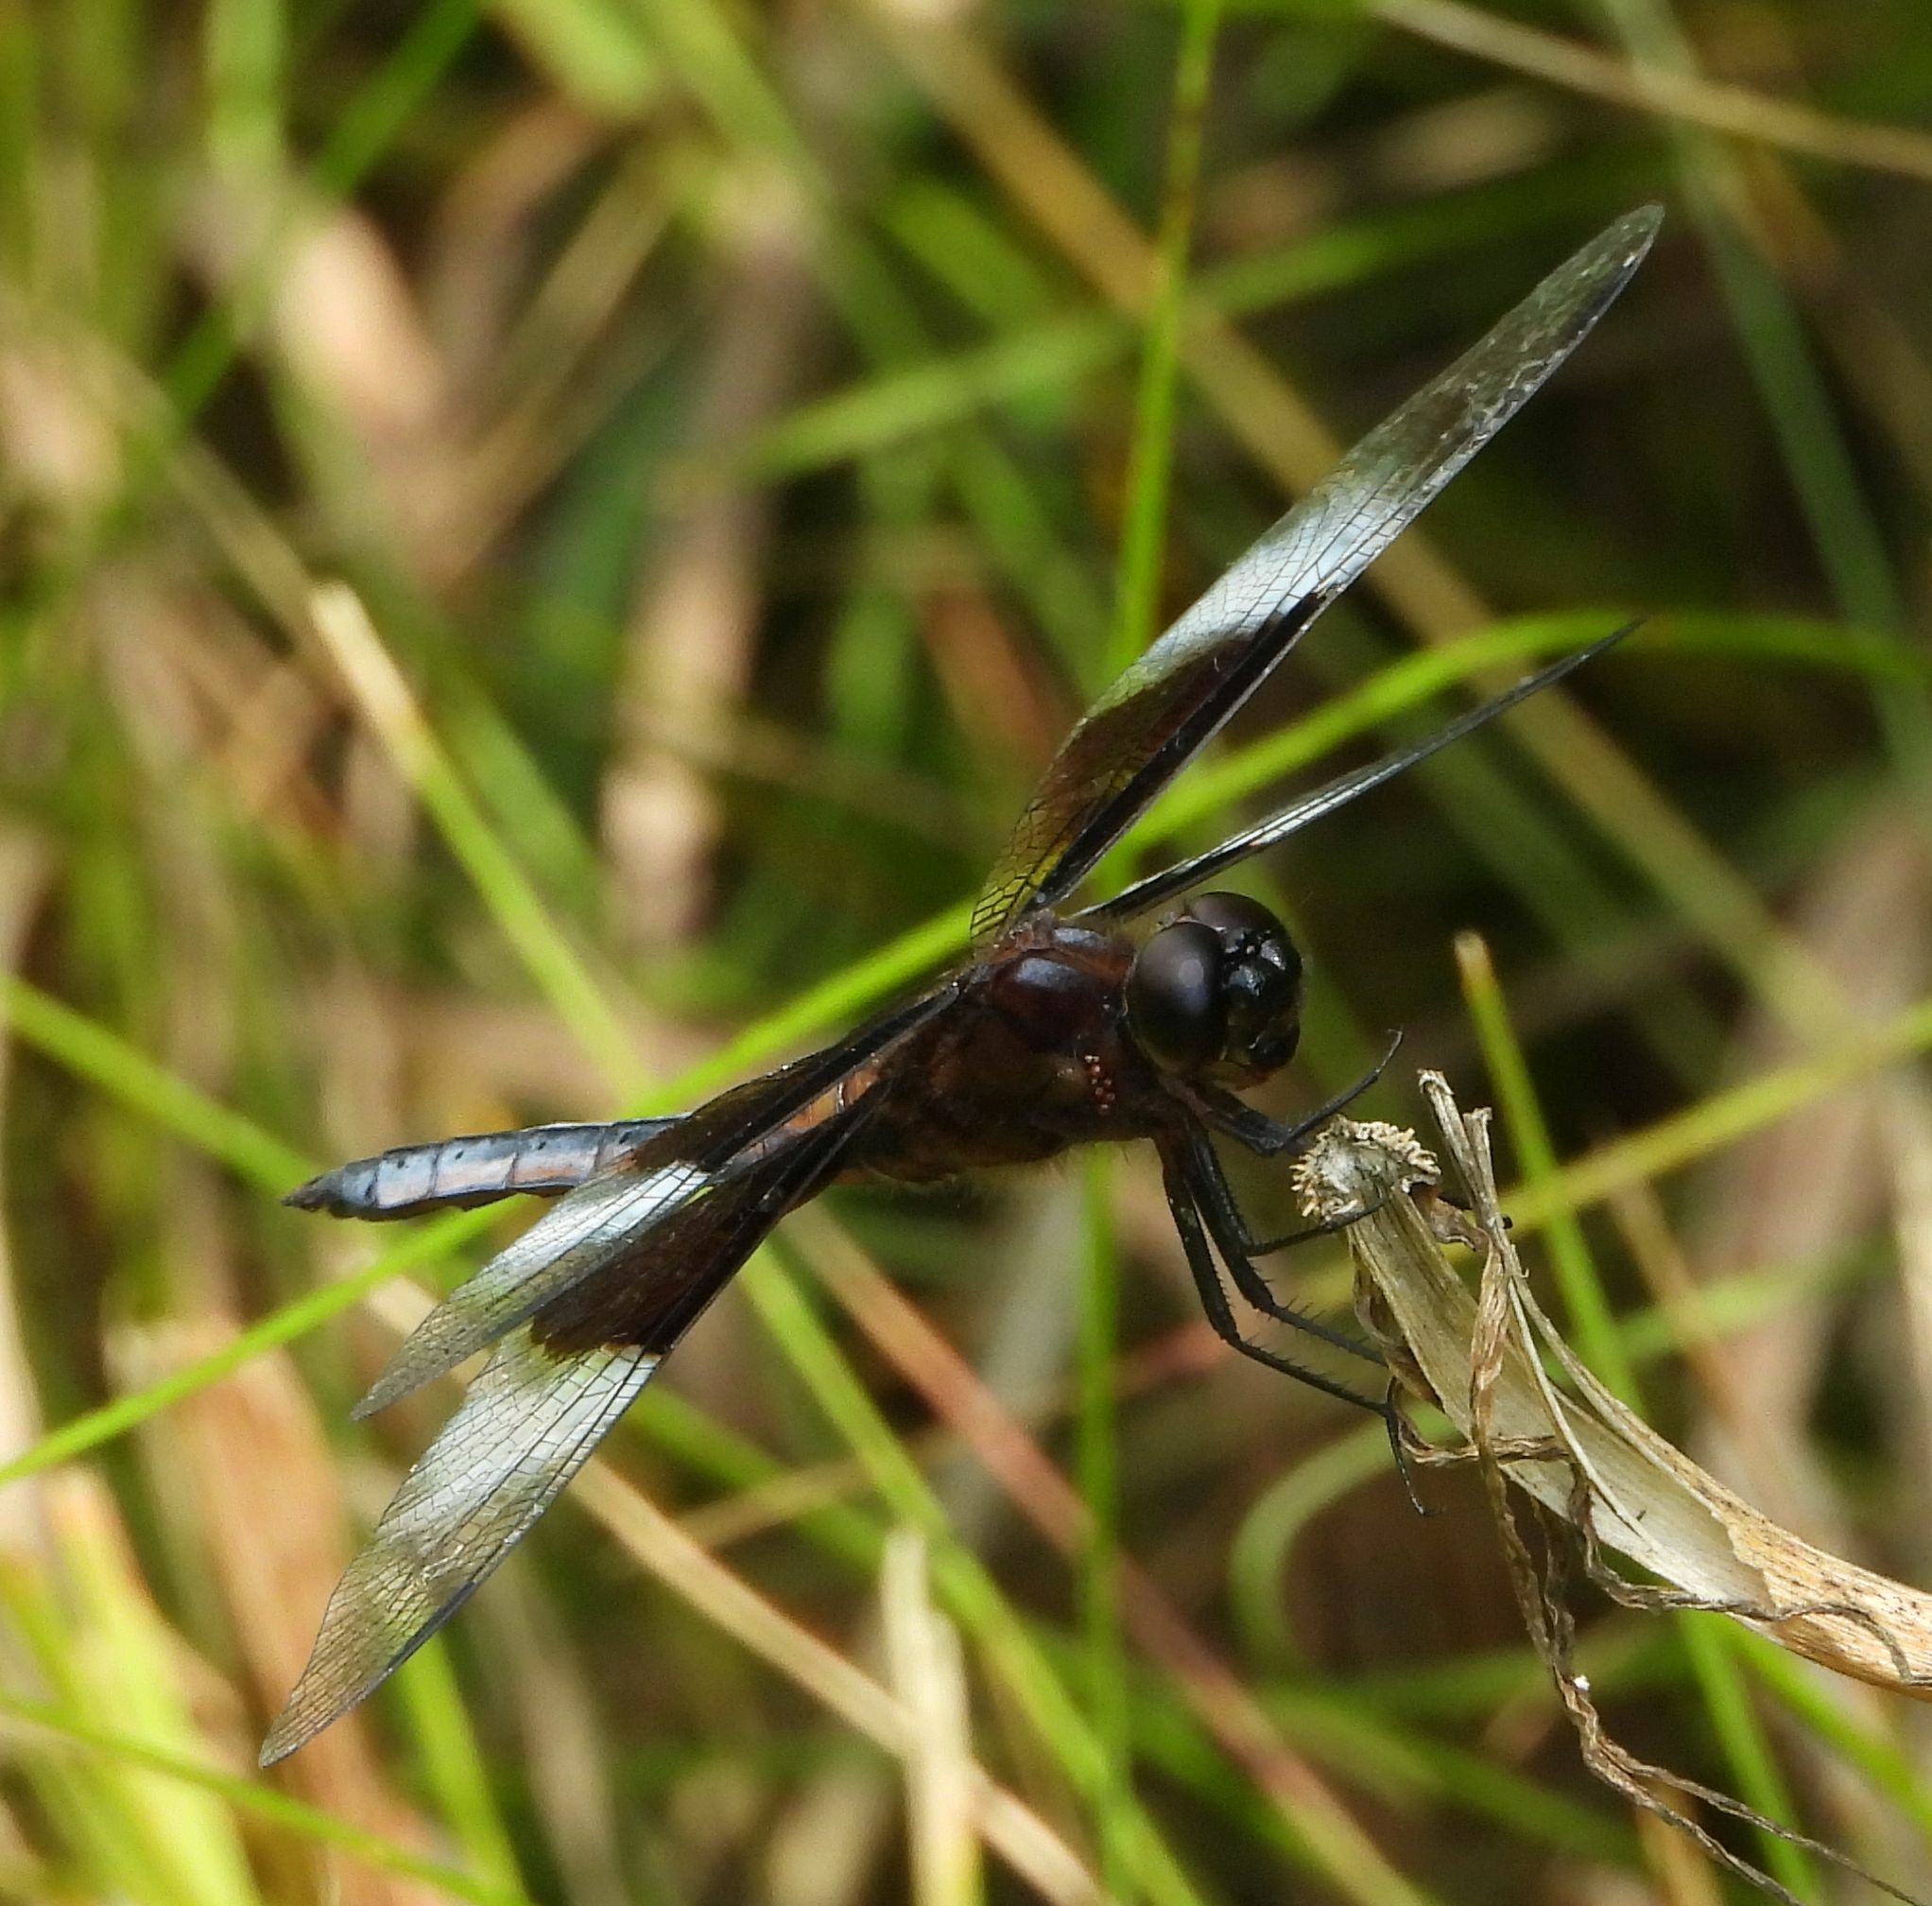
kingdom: Animalia
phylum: Arthropoda
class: Insecta
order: Odonata
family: Libellulidae
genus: Libellula
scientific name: Libellula luctuosa
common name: Widow skimmer
